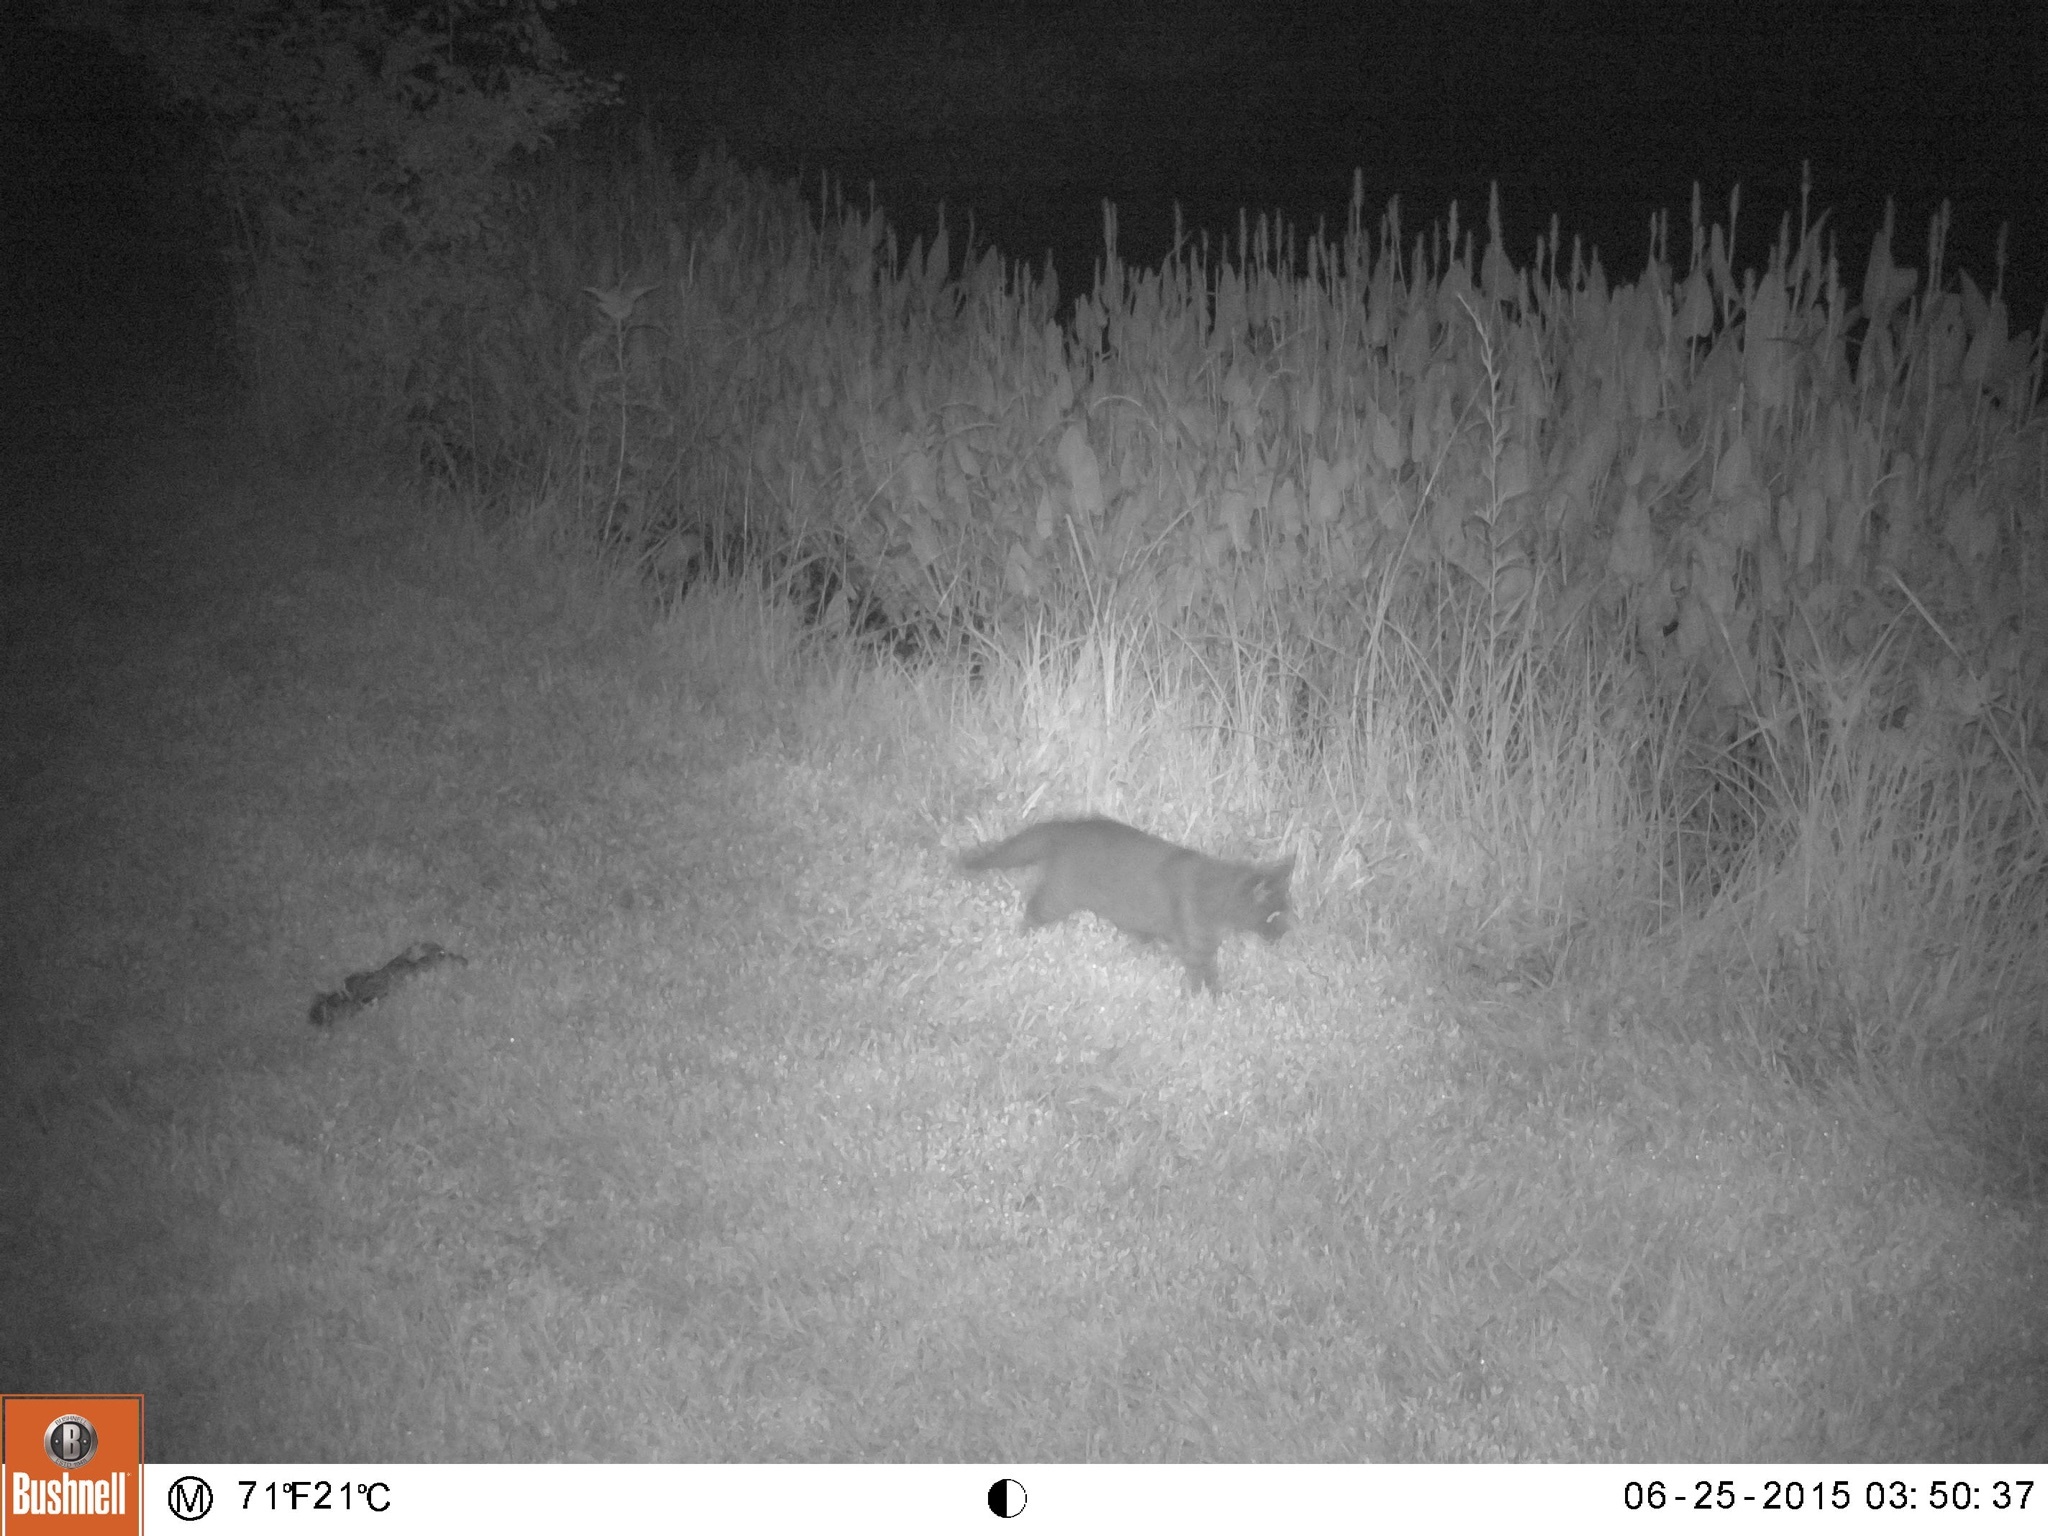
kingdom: Animalia
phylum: Chordata
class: Mammalia
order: Carnivora
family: Felidae
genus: Felis
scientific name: Felis catus
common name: Domestic cat
